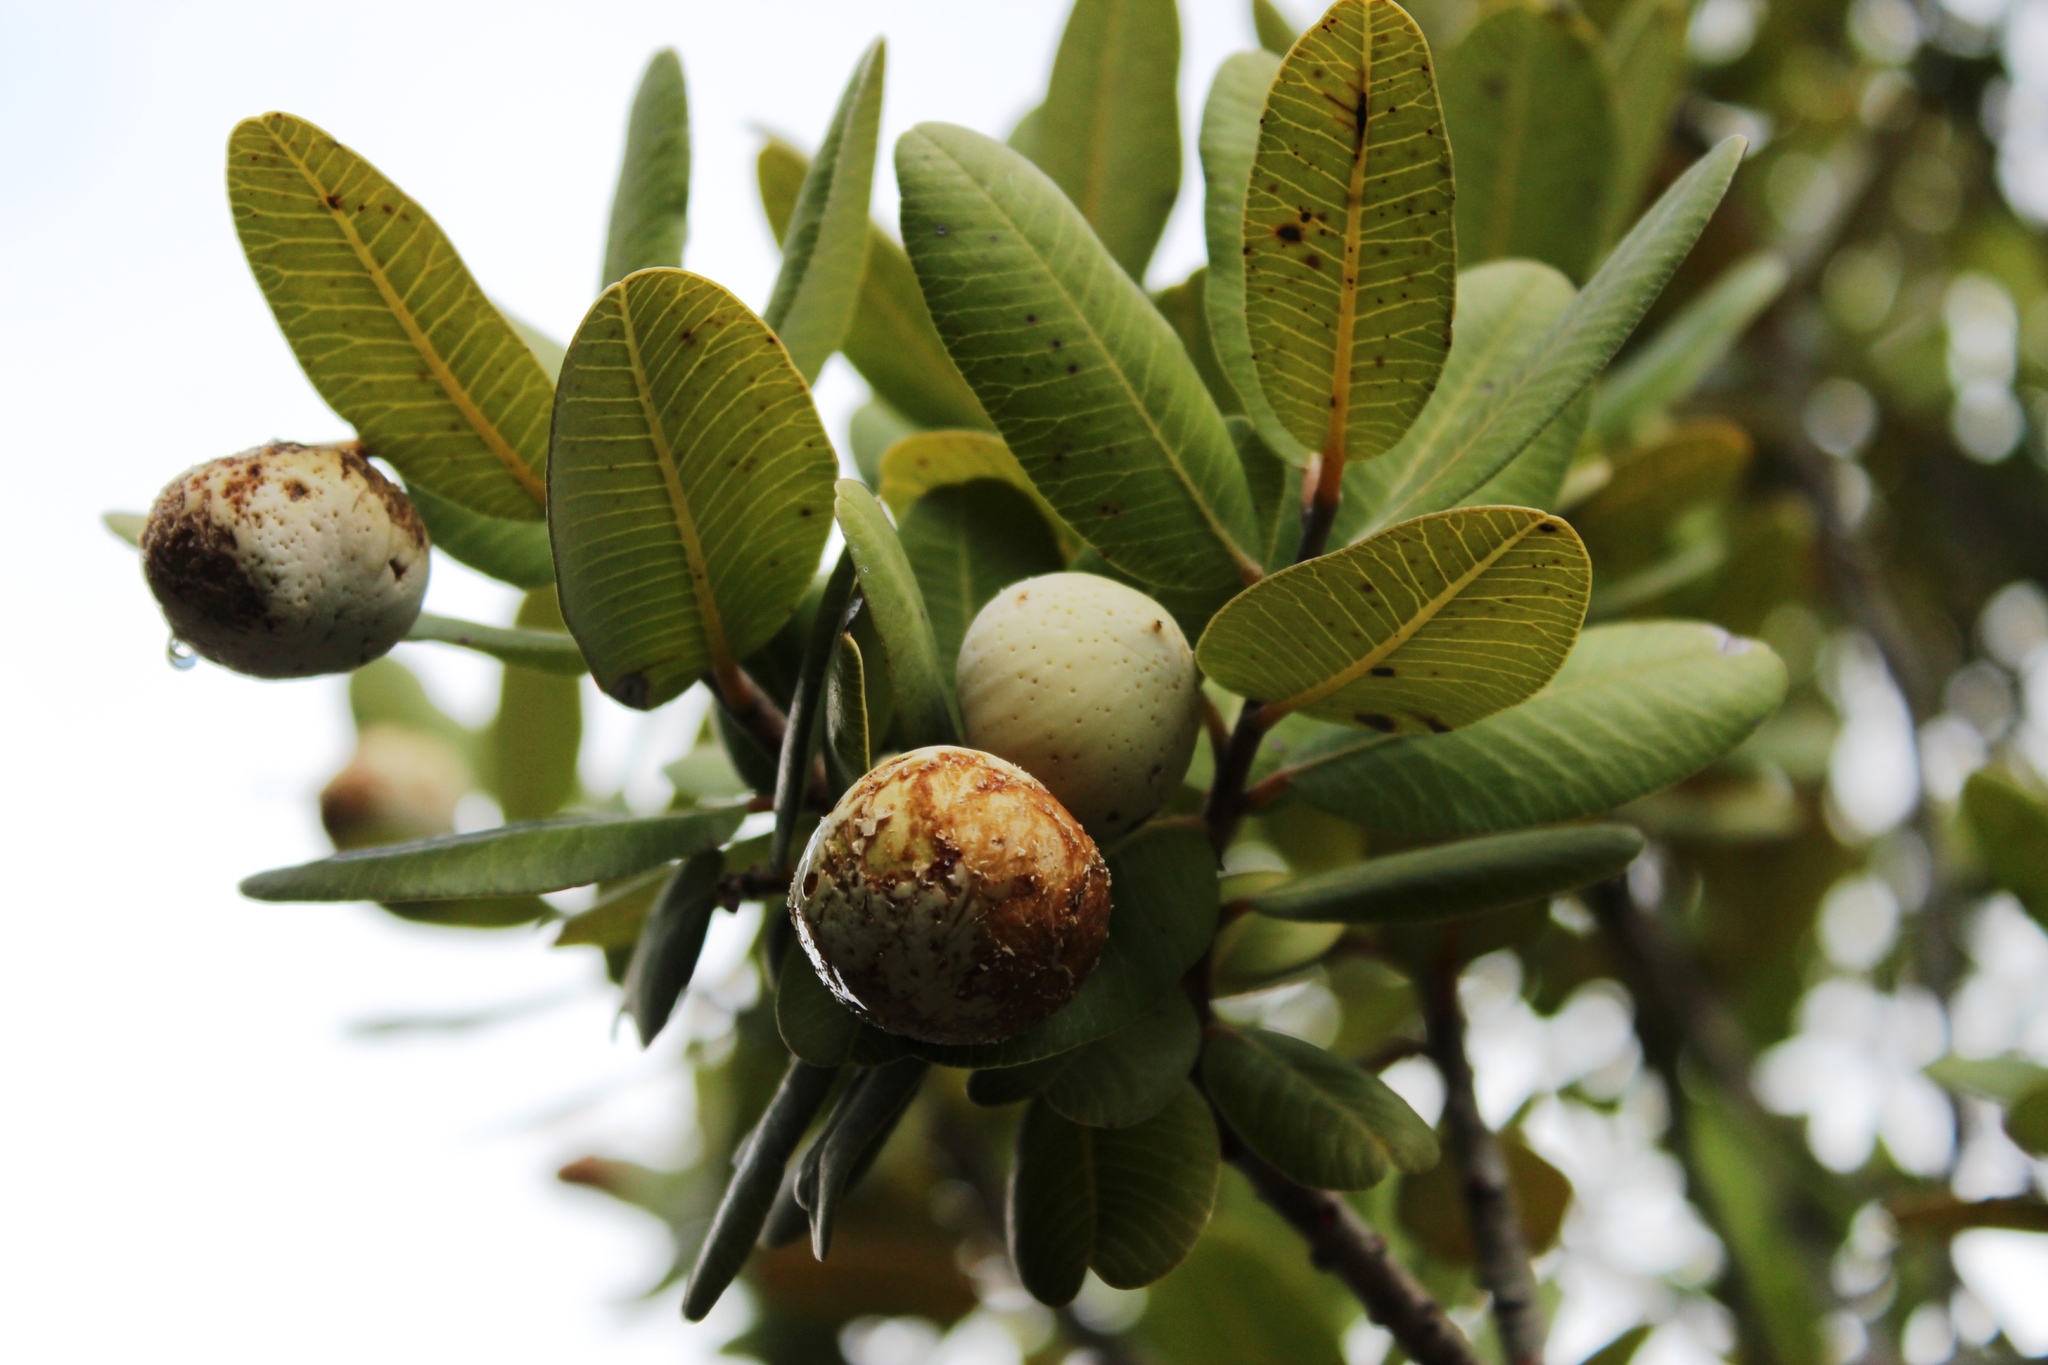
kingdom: Plantae
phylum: Tracheophyta
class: Magnoliopsida
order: Sapindales
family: Anacardiaceae
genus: Heeria
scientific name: Heeria argentea
